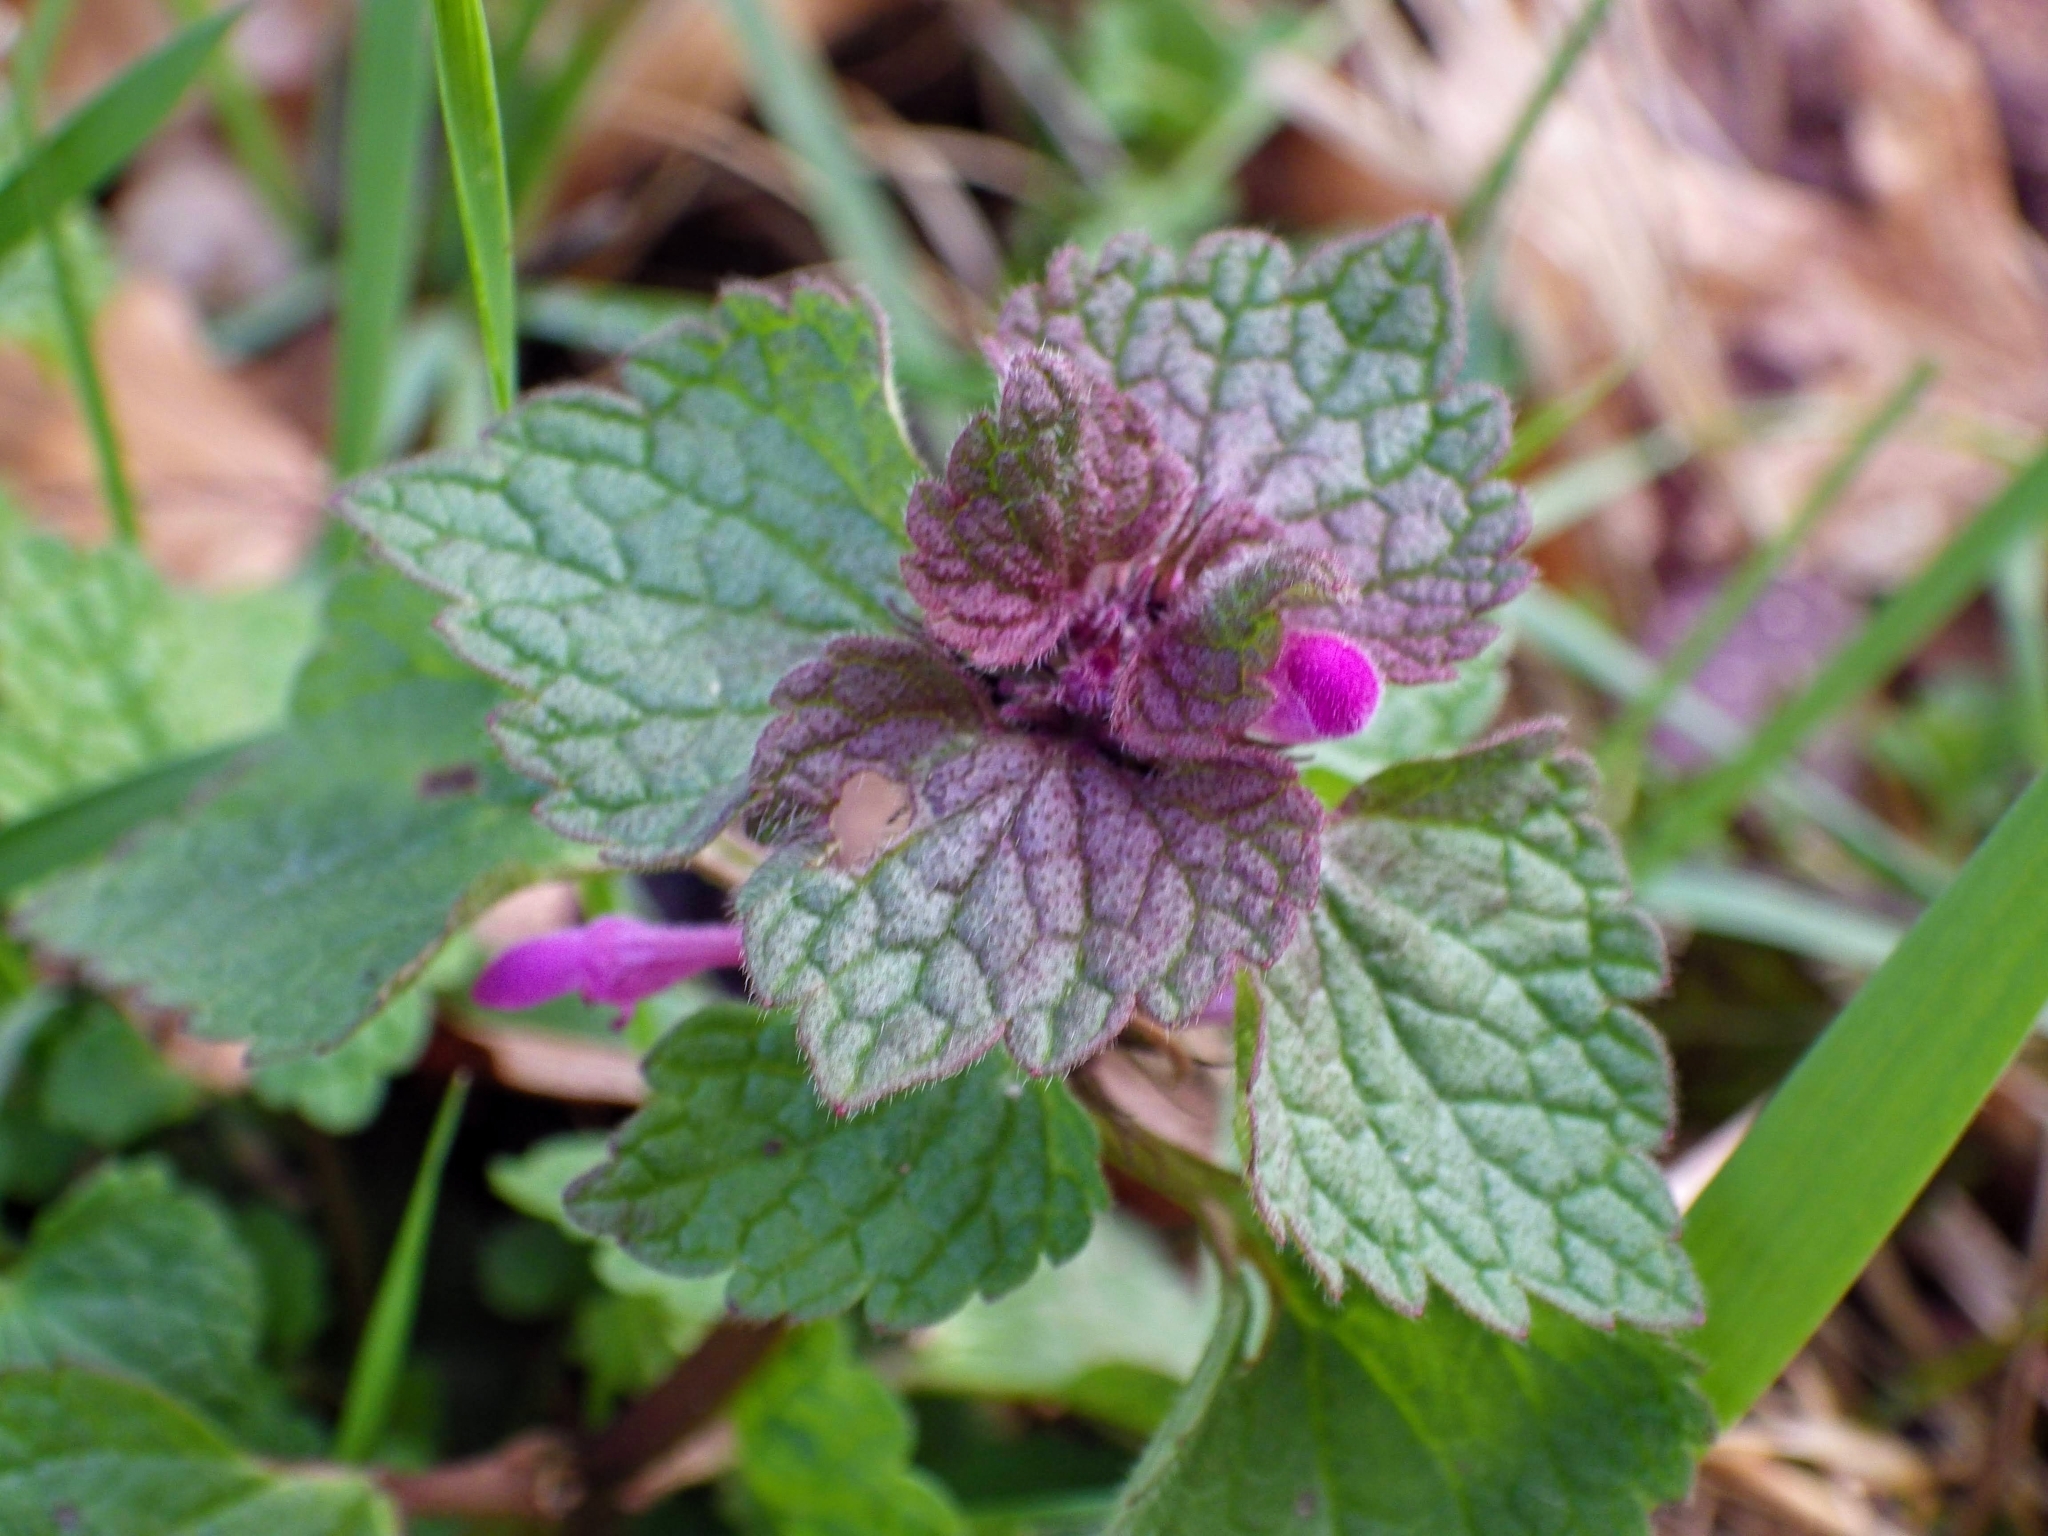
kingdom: Plantae
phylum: Tracheophyta
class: Magnoliopsida
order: Lamiales
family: Lamiaceae
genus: Lamium
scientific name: Lamium purpureum
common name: Red dead-nettle
